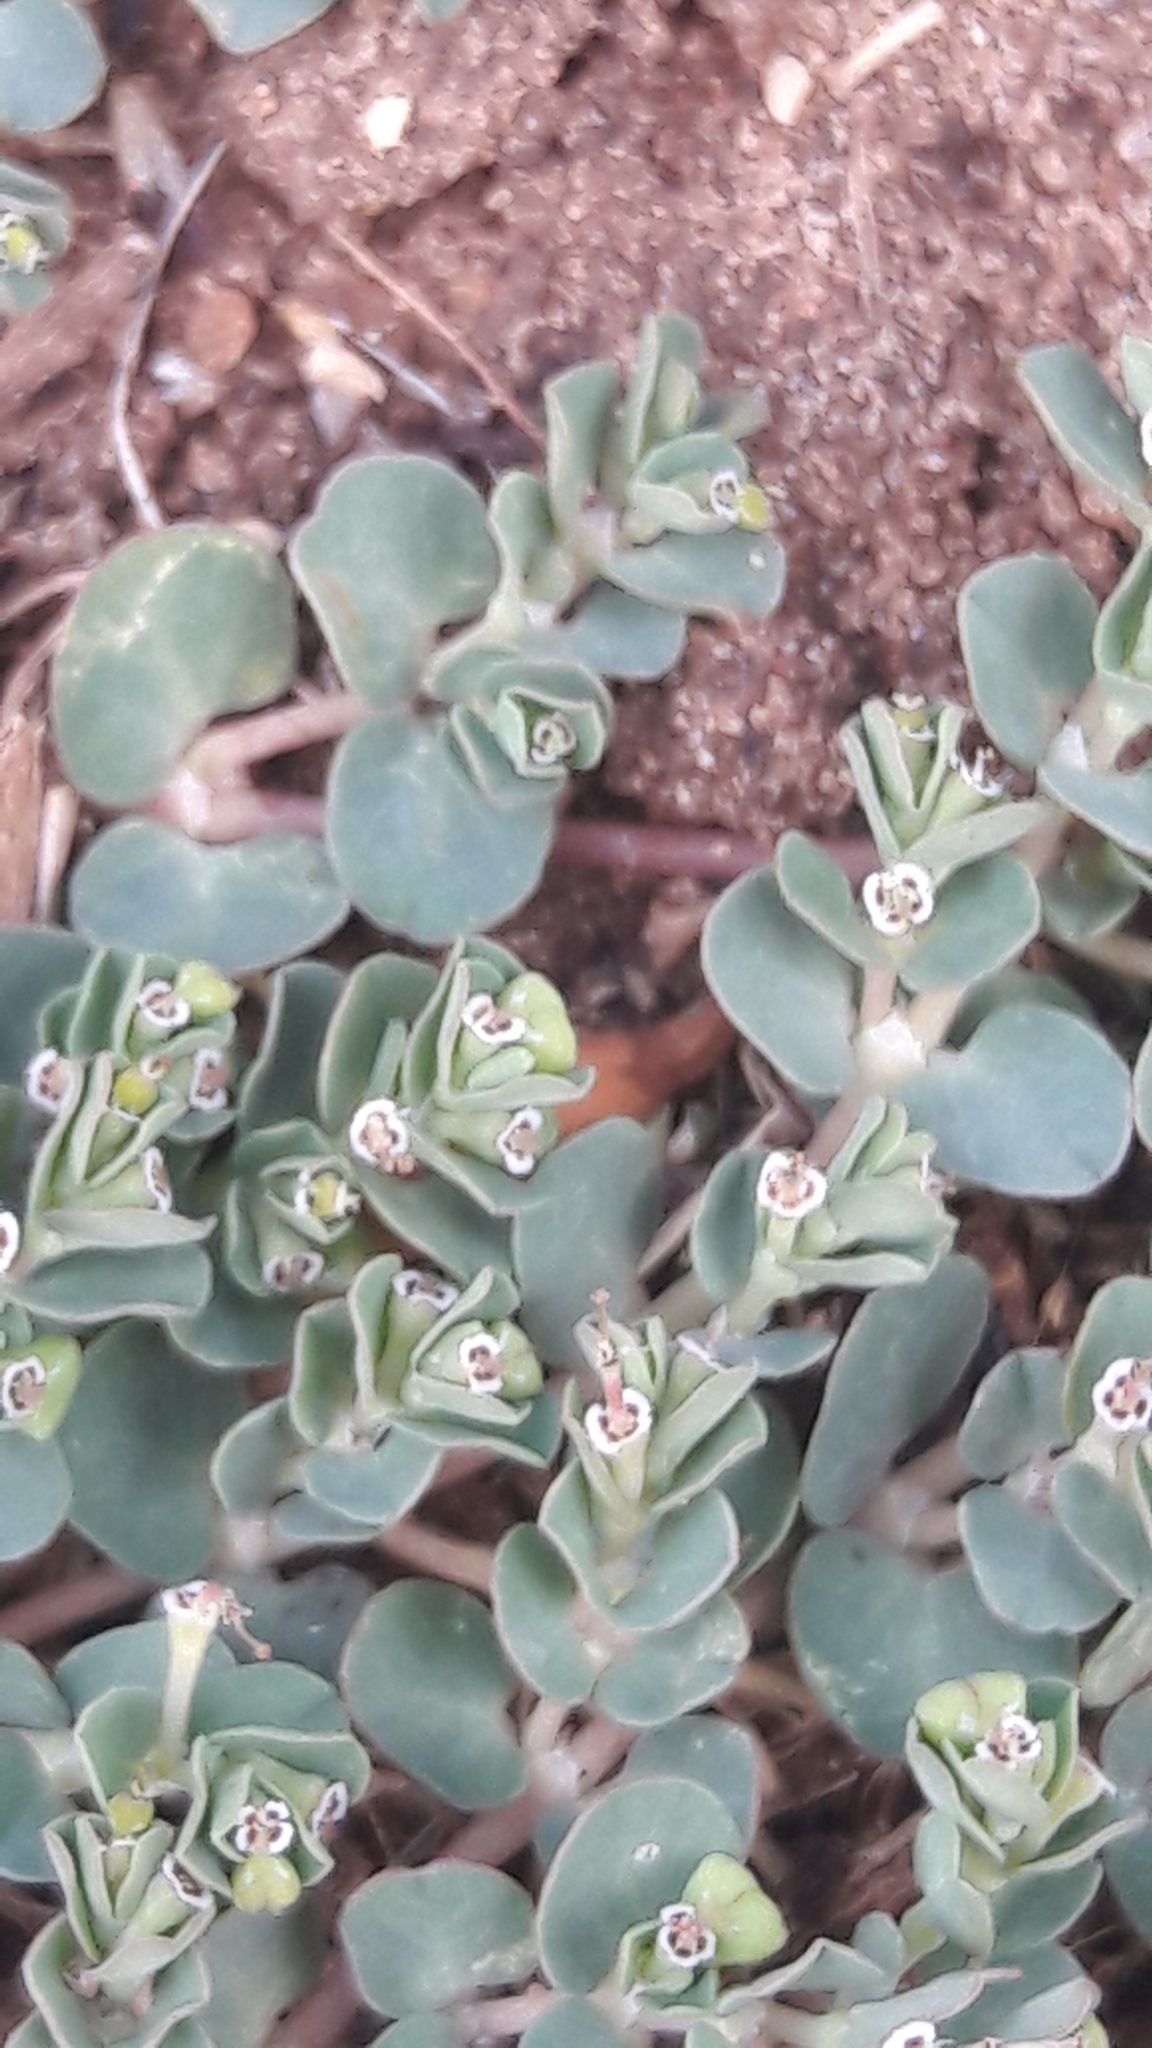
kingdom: Plantae
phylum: Tracheophyta
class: Magnoliopsida
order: Malpighiales
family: Euphorbiaceae
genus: Euphorbia
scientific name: Euphorbia serpens
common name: Matted sandmat
